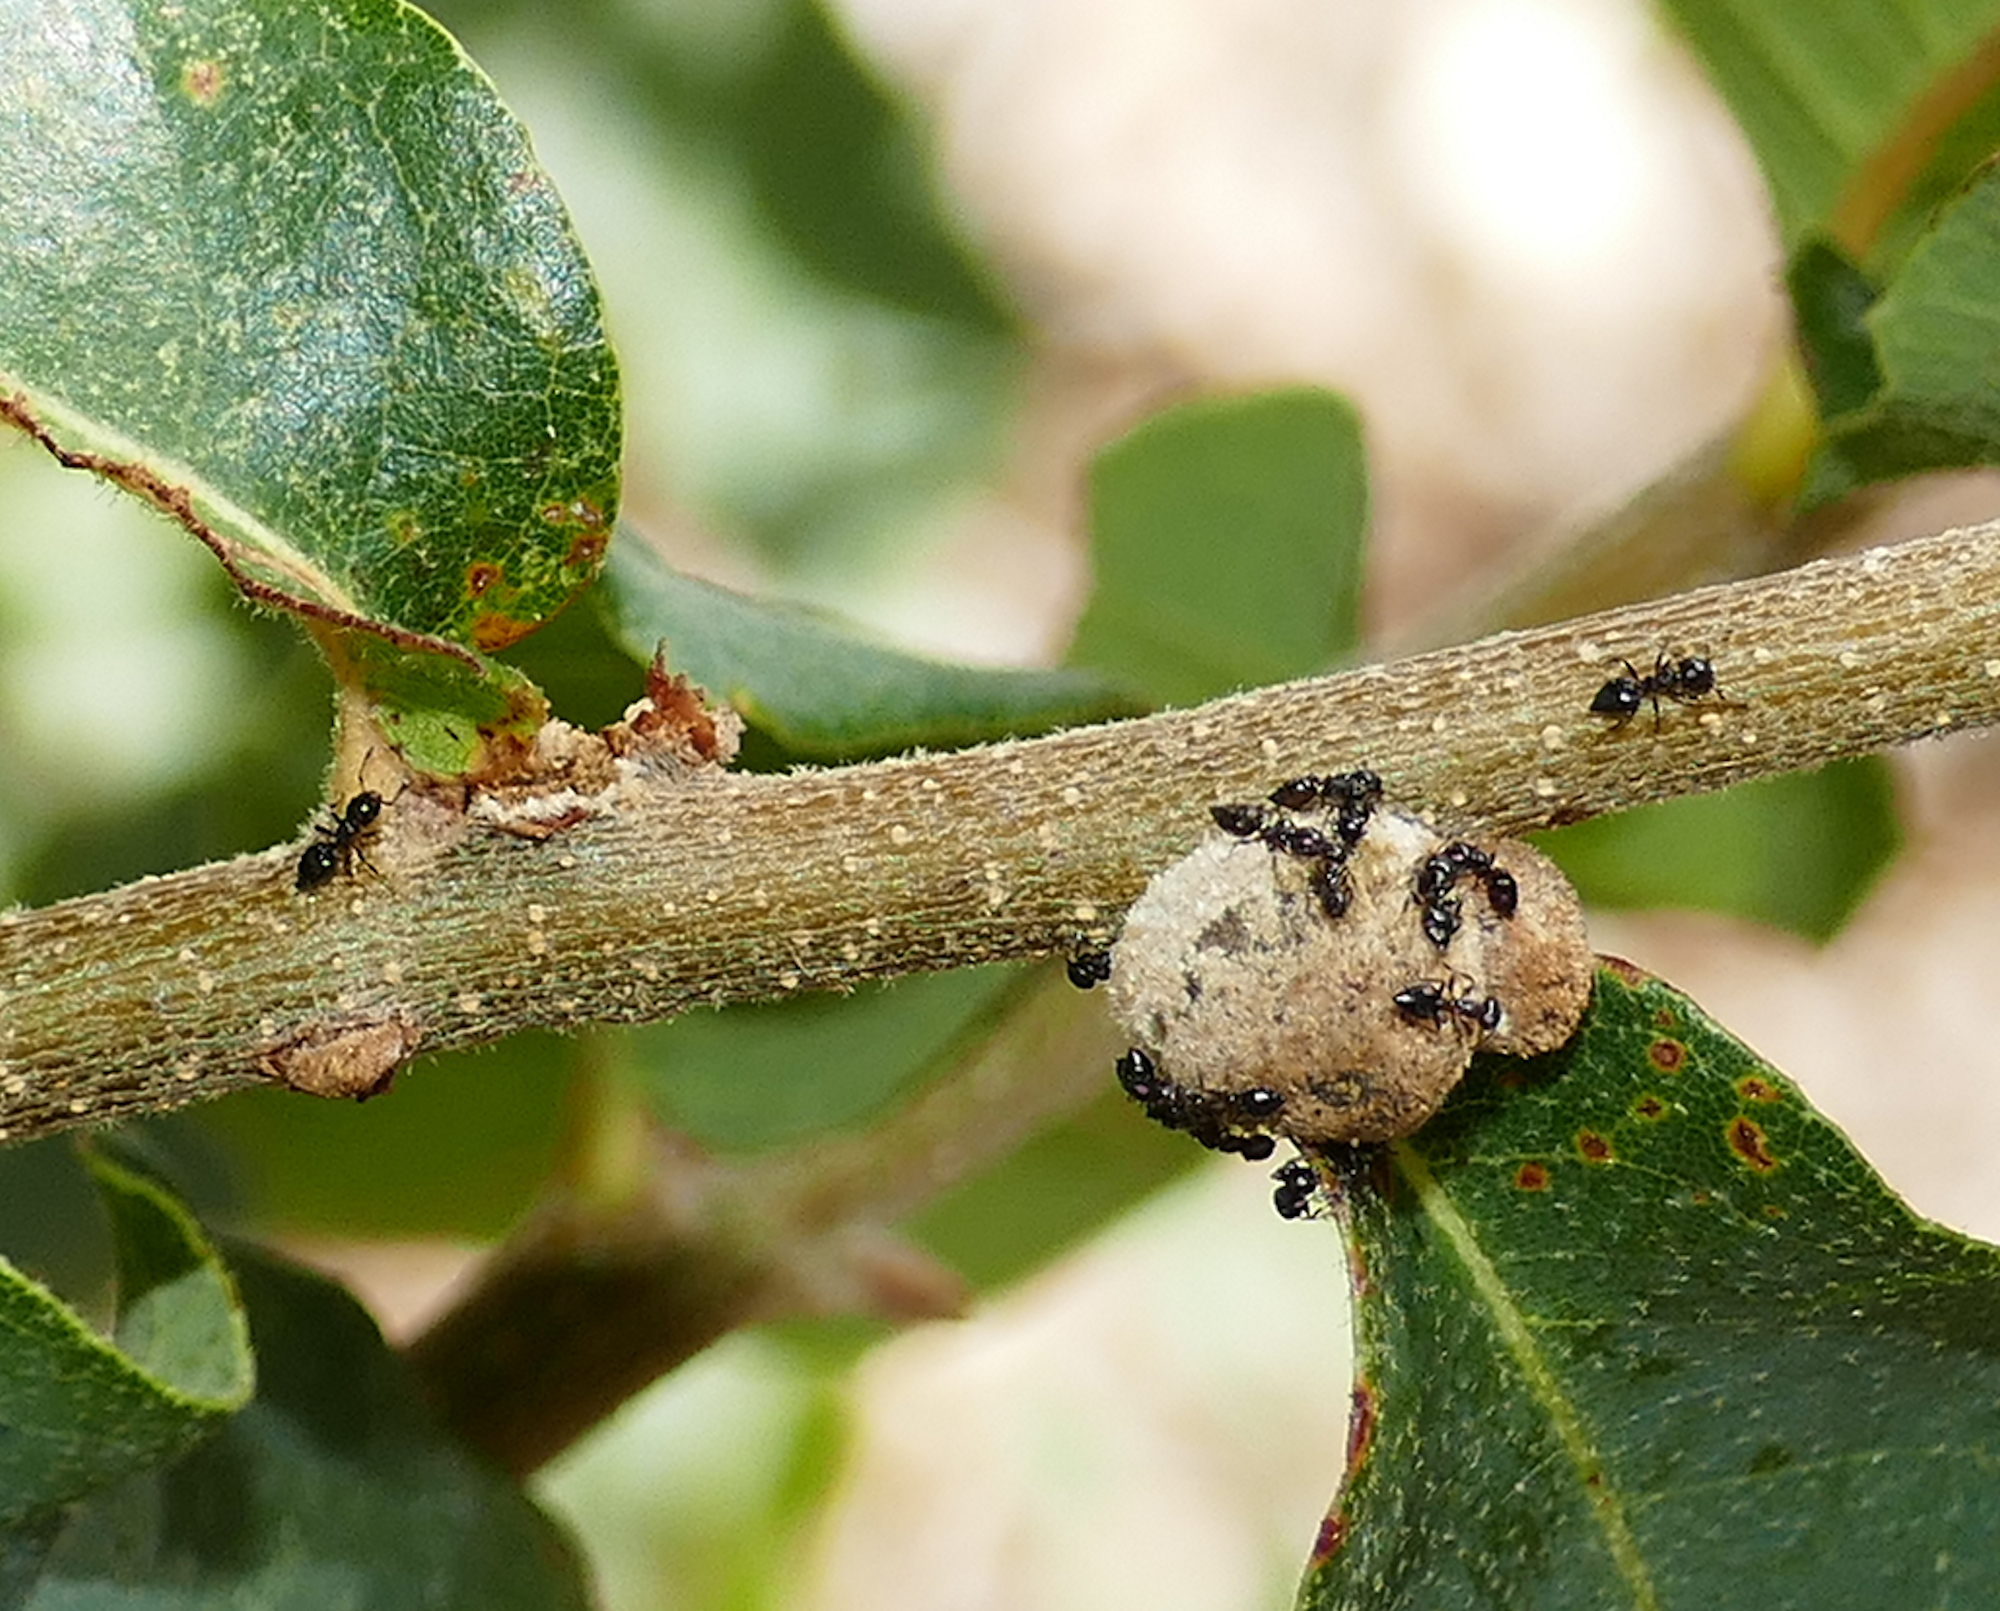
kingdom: Animalia
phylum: Arthropoda
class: Insecta
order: Hymenoptera
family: Formicidae
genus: Crematogaster
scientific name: Crematogaster torosa
